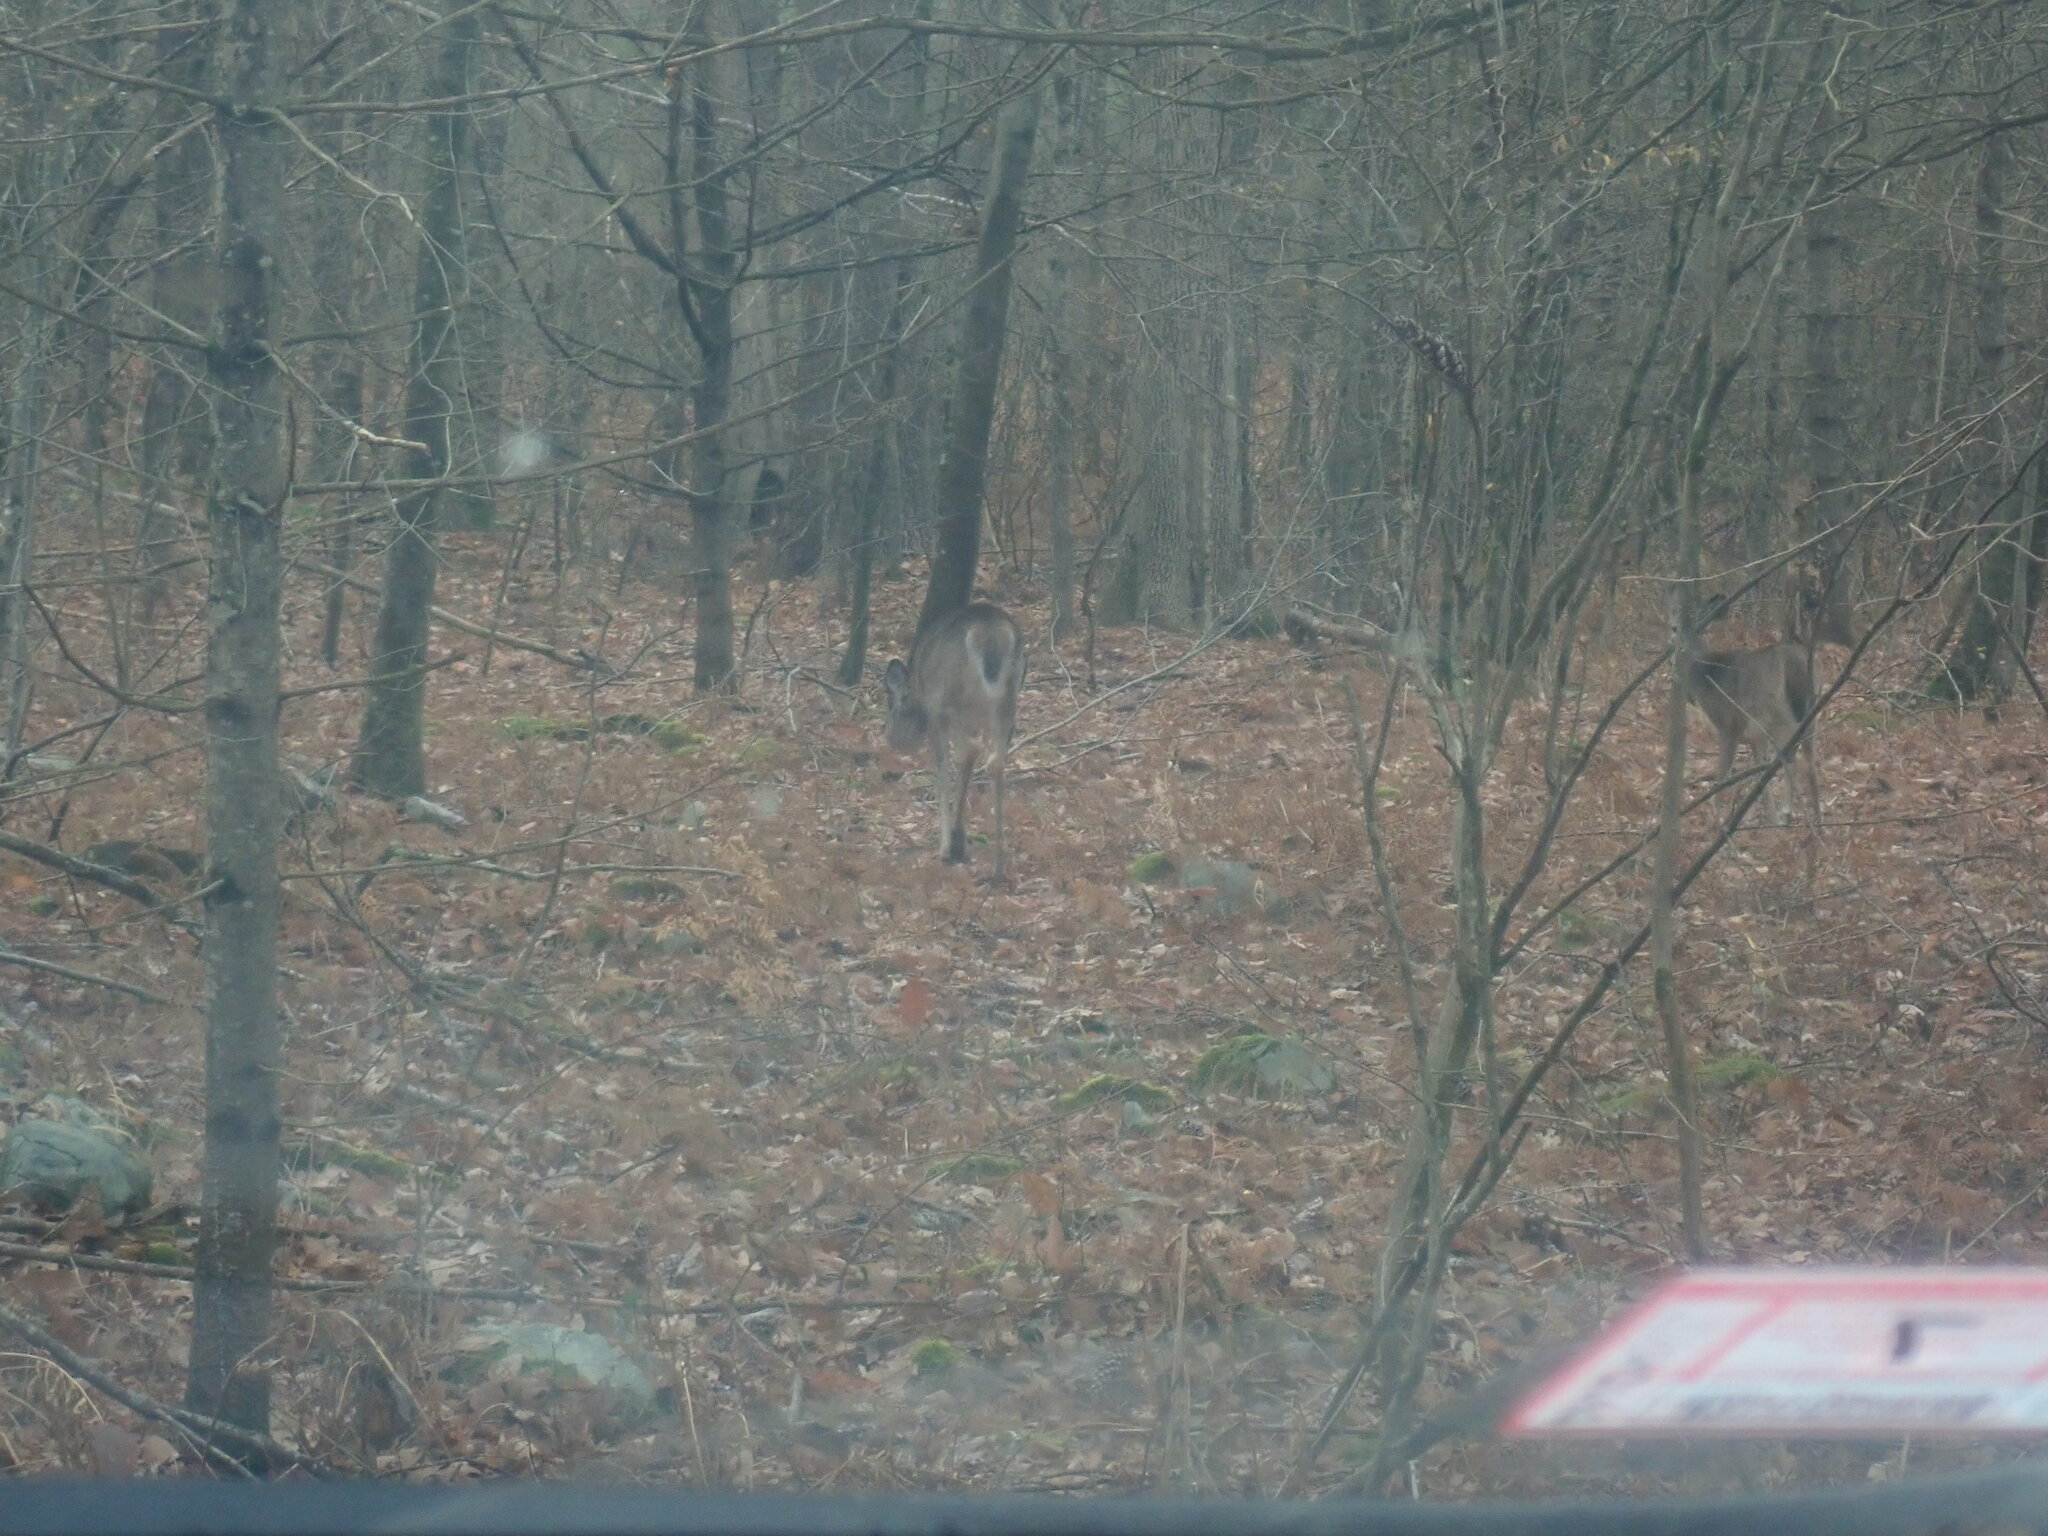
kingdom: Animalia
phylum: Chordata
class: Mammalia
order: Artiodactyla
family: Cervidae
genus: Odocoileus
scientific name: Odocoileus virginianus
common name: White-tailed deer
